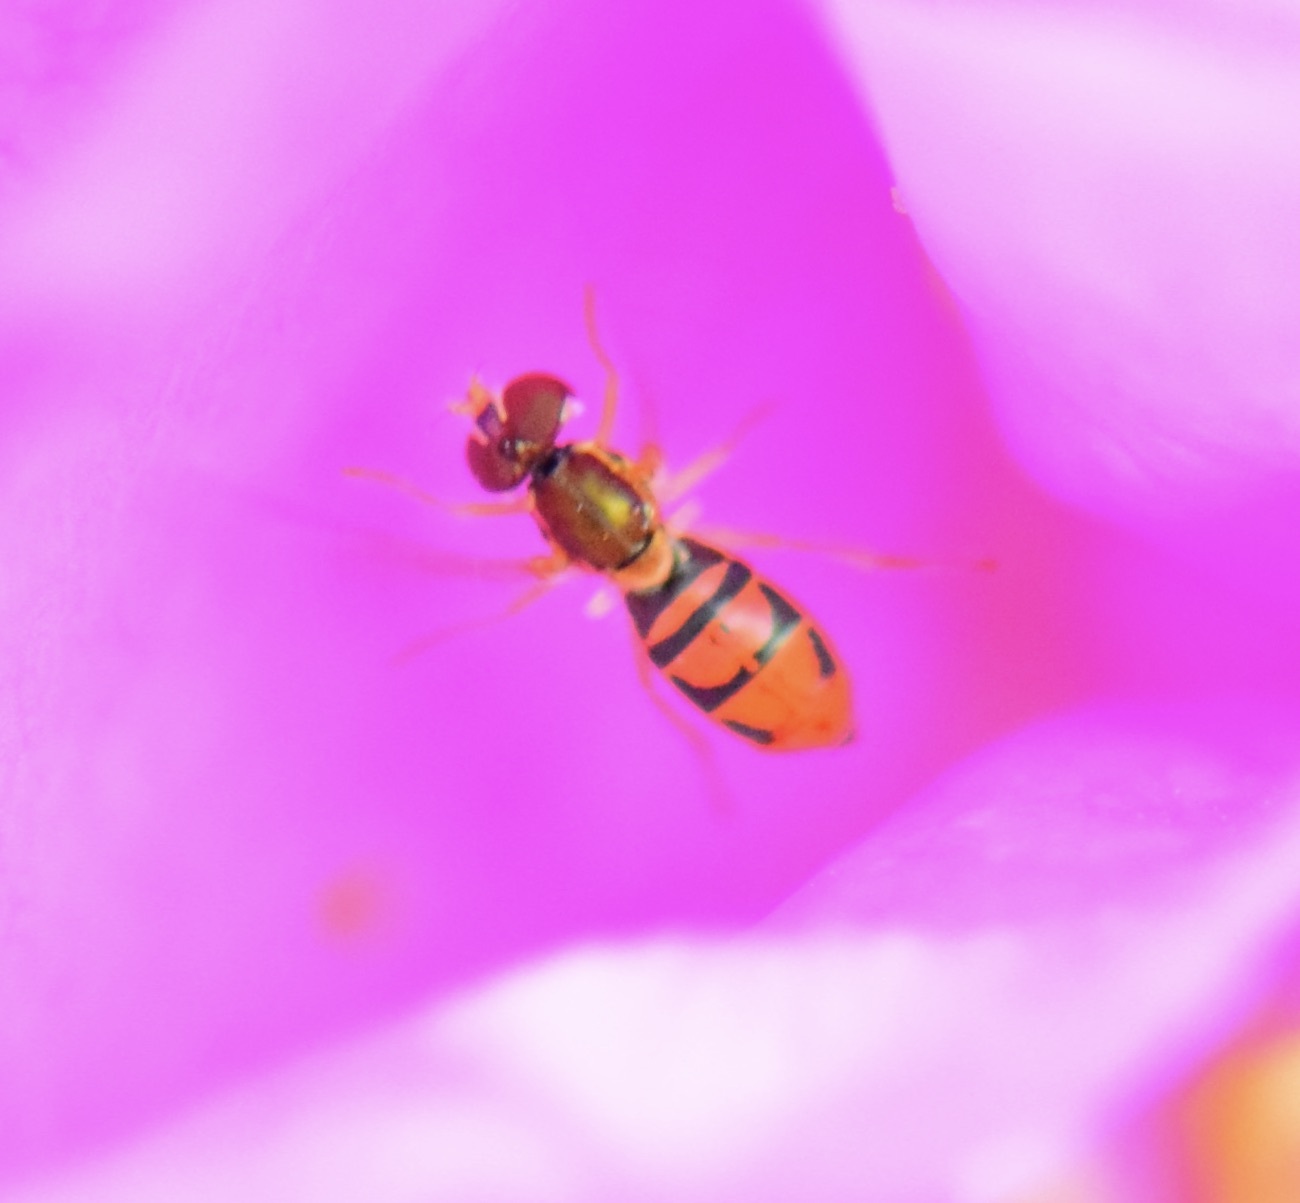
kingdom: Animalia
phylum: Arthropoda
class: Insecta
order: Diptera
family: Syrphidae
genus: Toxomerus
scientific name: Toxomerus marginatus
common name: Syrphid fly
